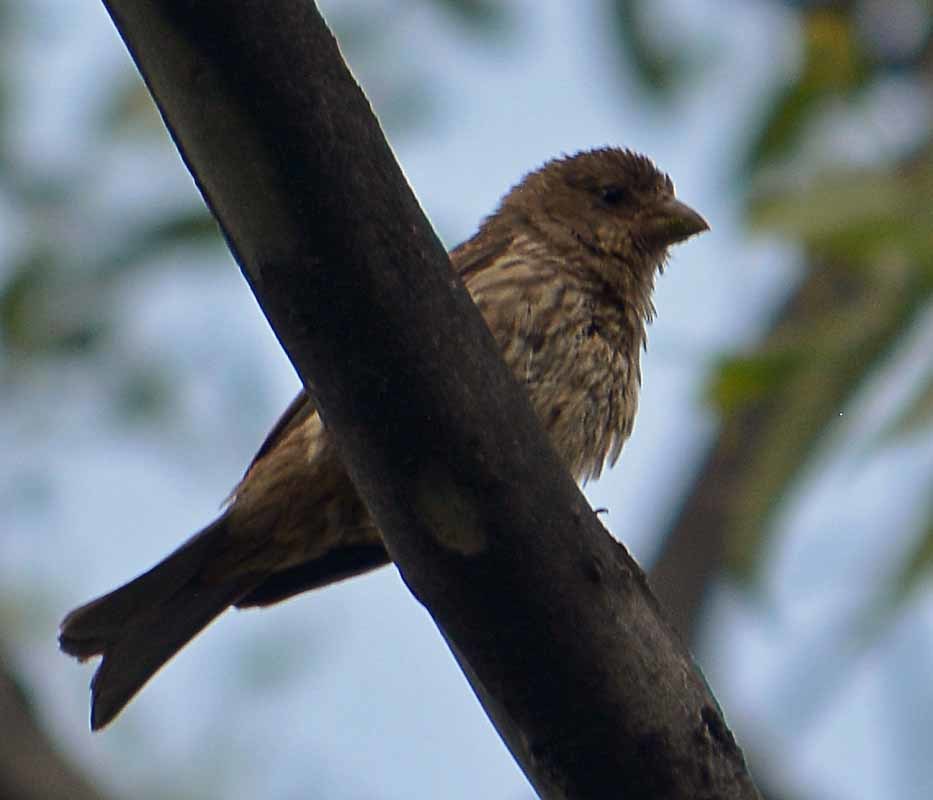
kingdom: Animalia
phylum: Chordata
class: Aves
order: Passeriformes
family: Fringillidae
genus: Haemorhous
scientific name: Haemorhous mexicanus
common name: House finch
